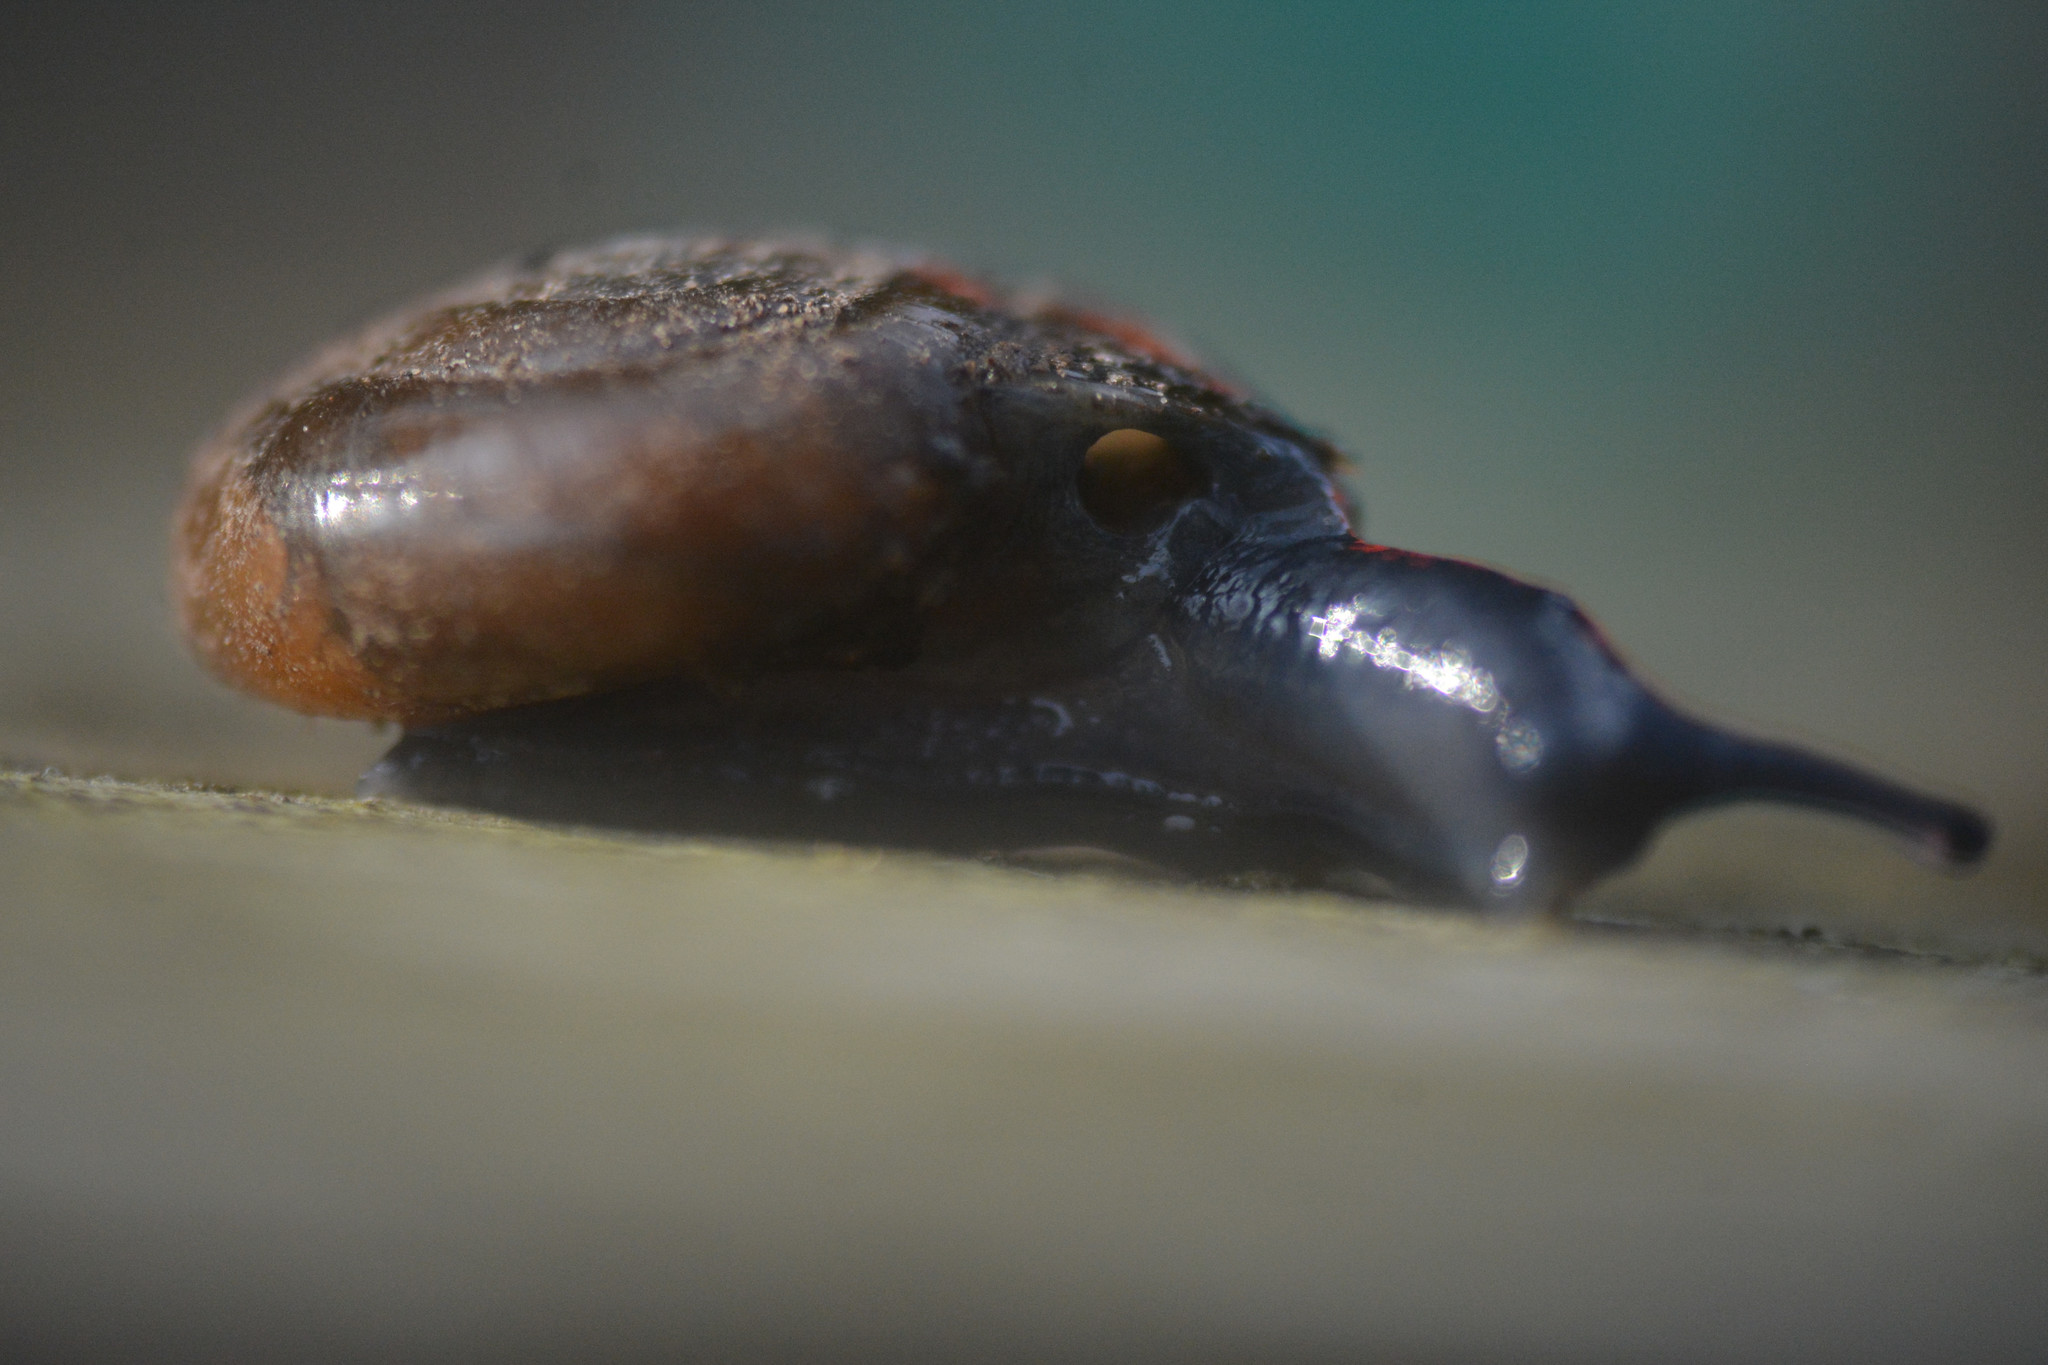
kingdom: Animalia
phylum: Mollusca
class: Gastropoda
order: Stylommatophora
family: Gastrodontidae
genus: Zonitoides
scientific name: Zonitoides nitidus
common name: Shiny glass snail
